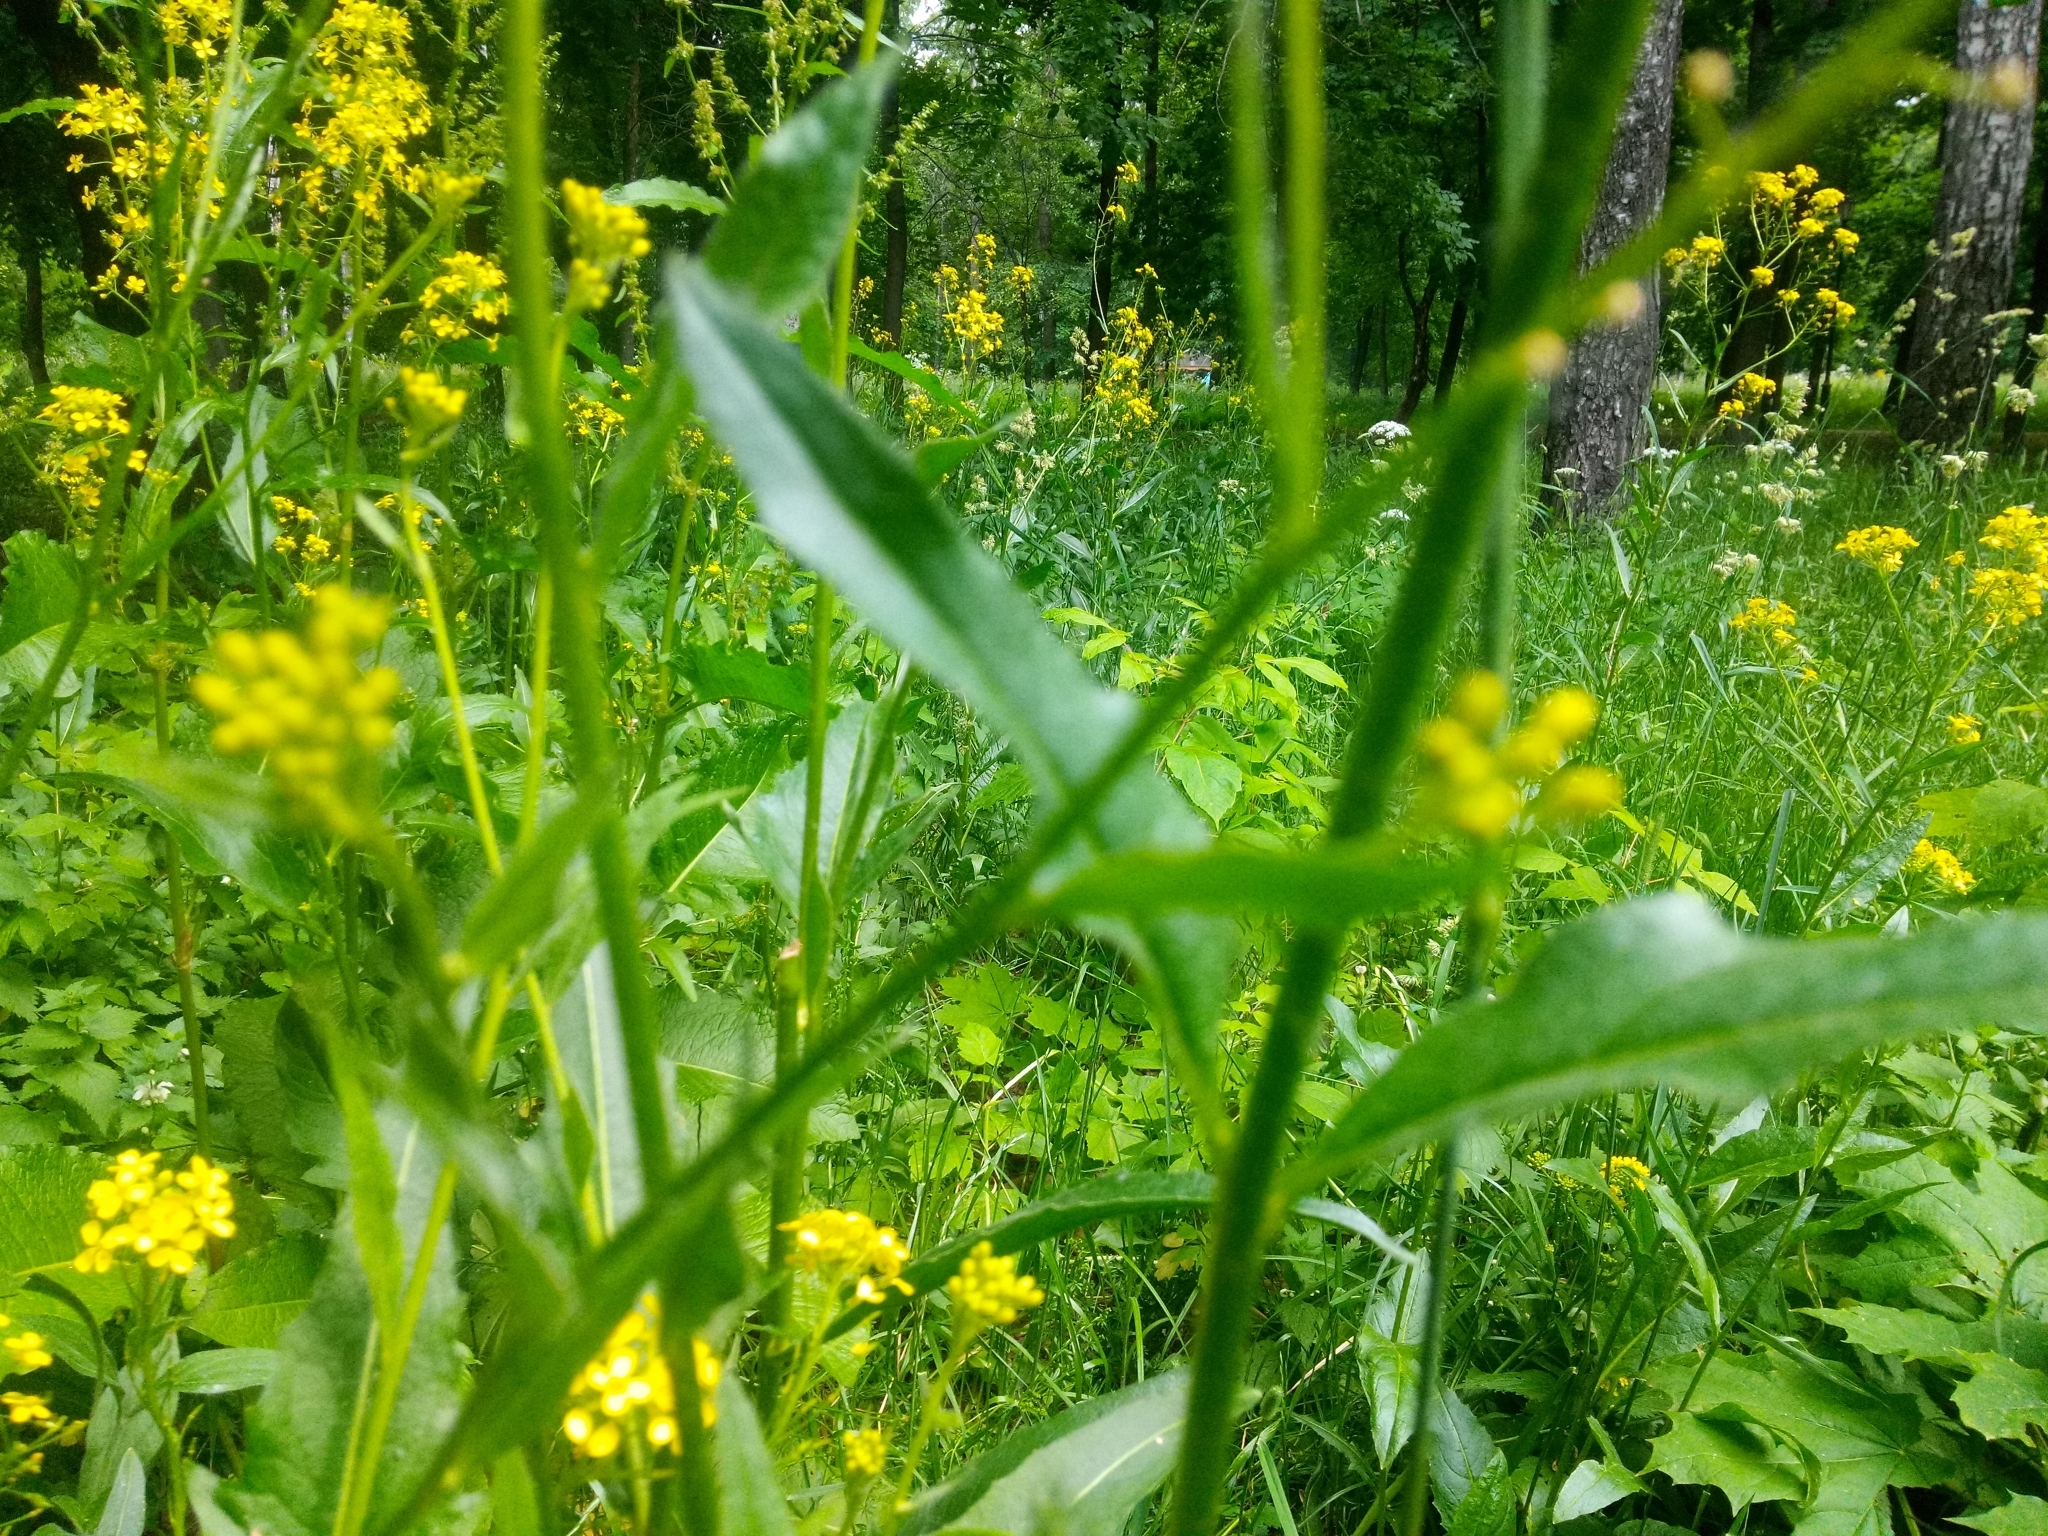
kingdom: Plantae
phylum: Tracheophyta
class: Magnoliopsida
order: Brassicales
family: Brassicaceae
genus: Bunias
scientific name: Bunias orientalis
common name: Warty-cabbage
